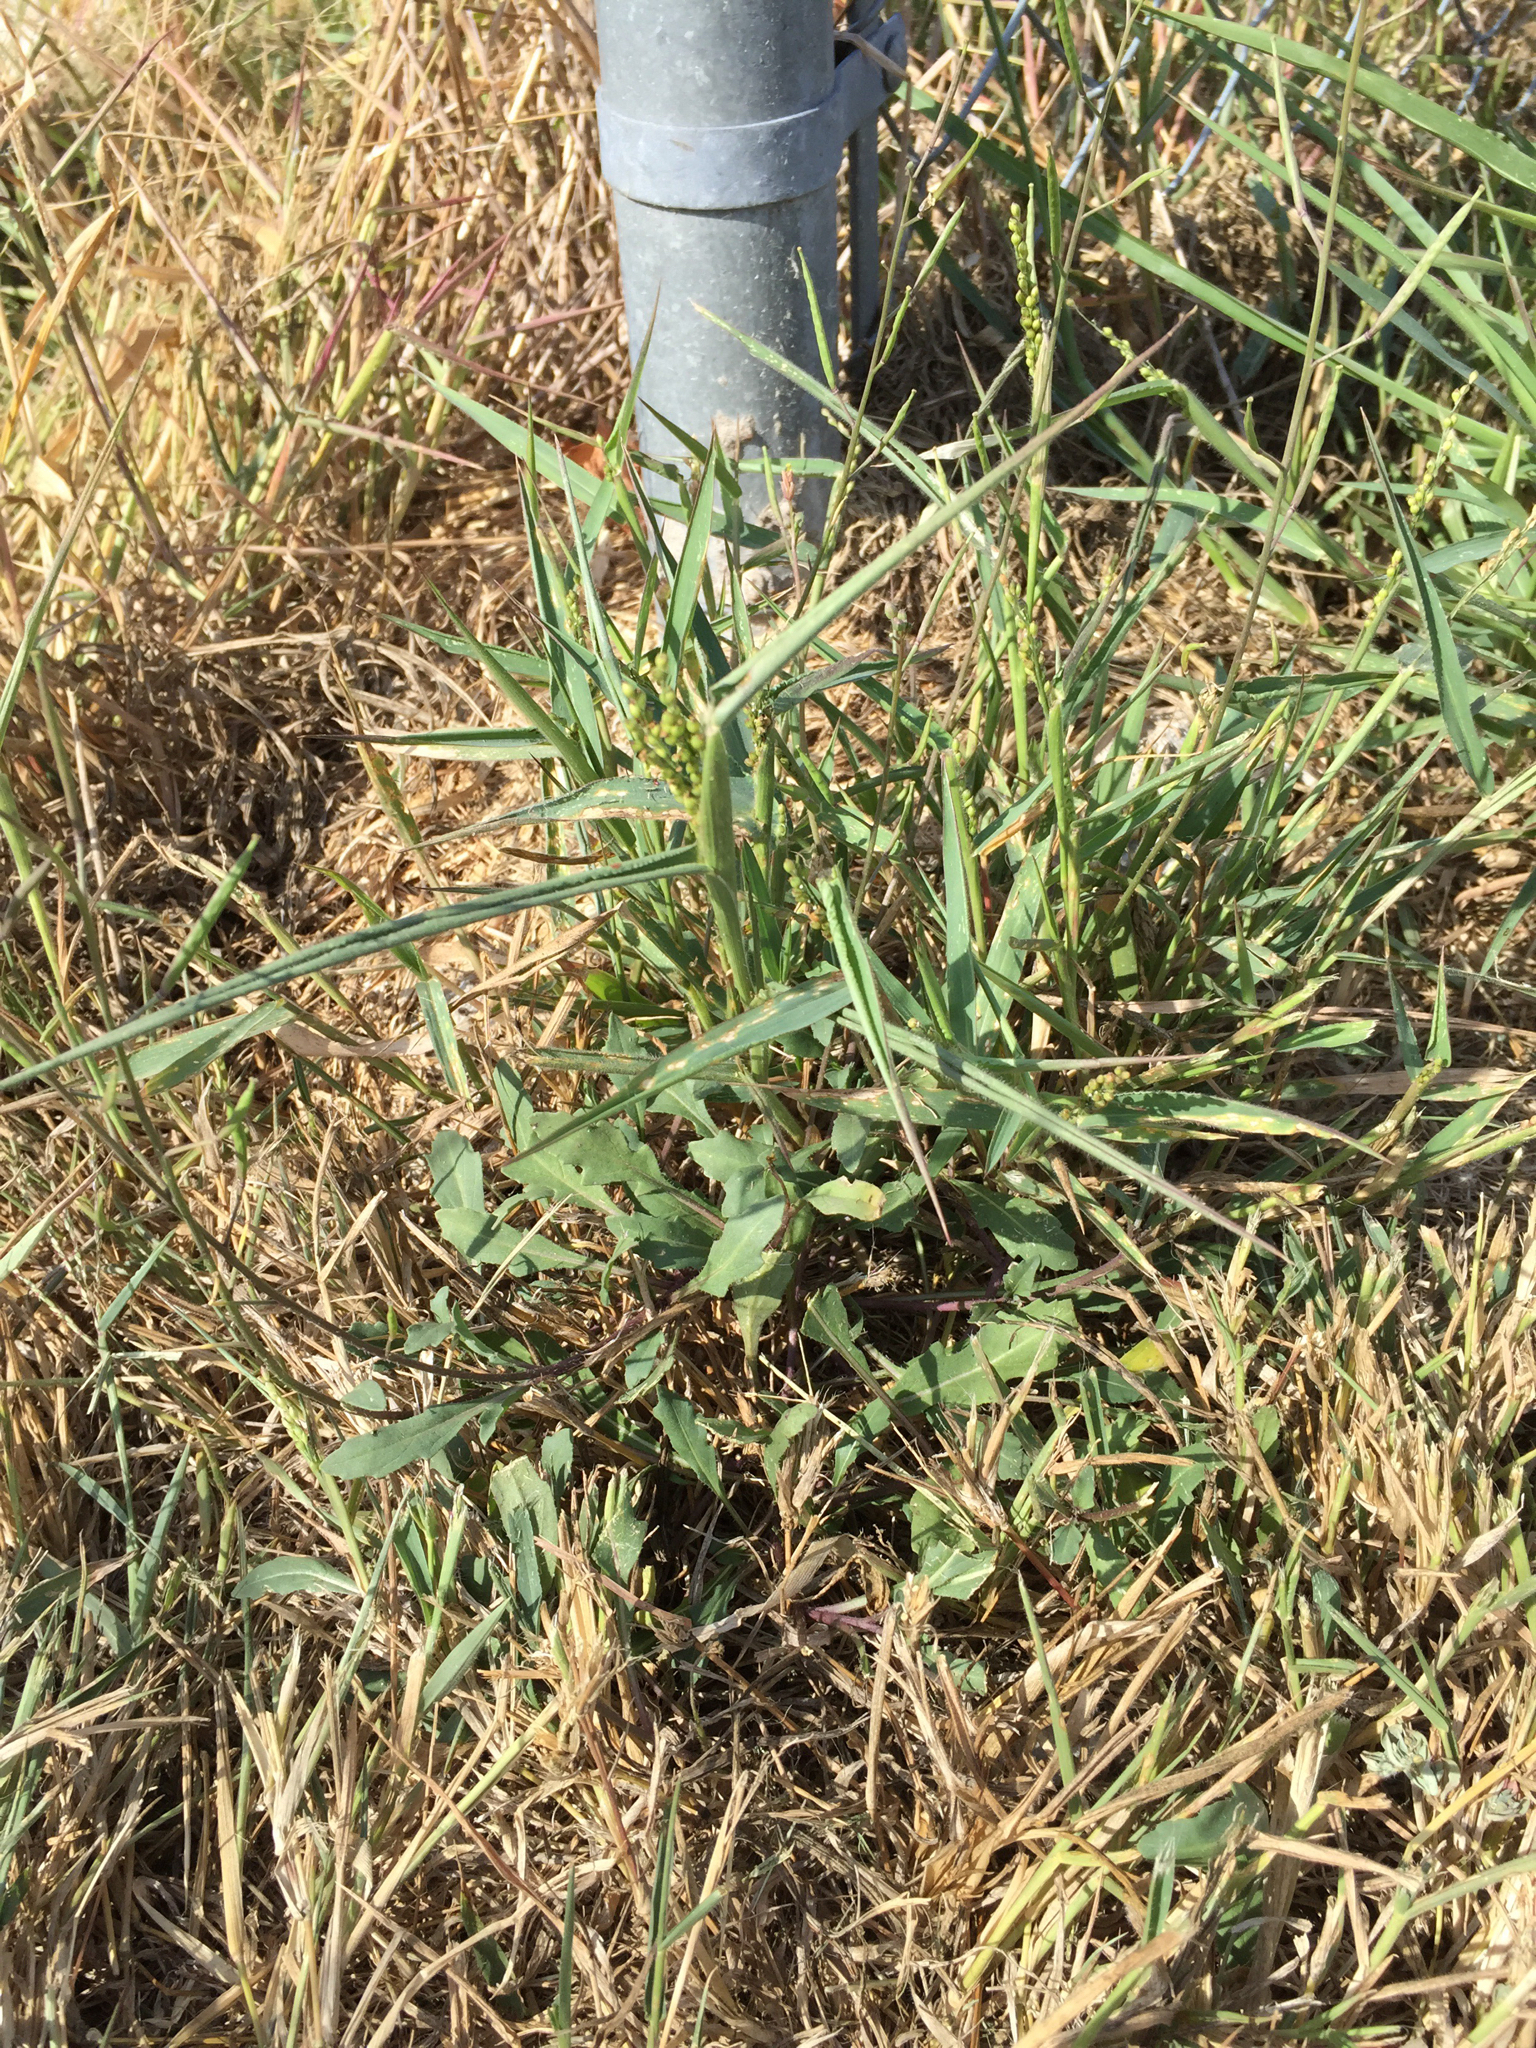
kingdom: Plantae
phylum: Tracheophyta
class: Magnoliopsida
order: Brassicales
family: Brassicaceae
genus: Diplotaxis
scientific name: Diplotaxis muralis
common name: Annual wall-rocket
